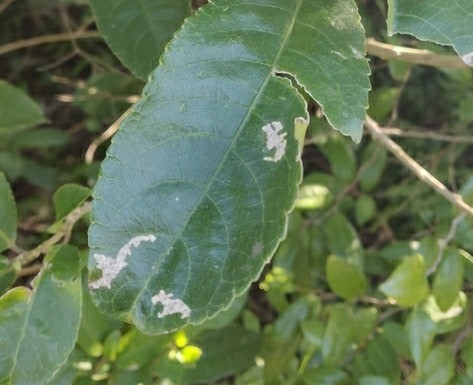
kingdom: Animalia
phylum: Arthropoda
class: Insecta
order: Diptera
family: Agromyzidae
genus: Liriomyza
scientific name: Liriomyza flavolateralis
